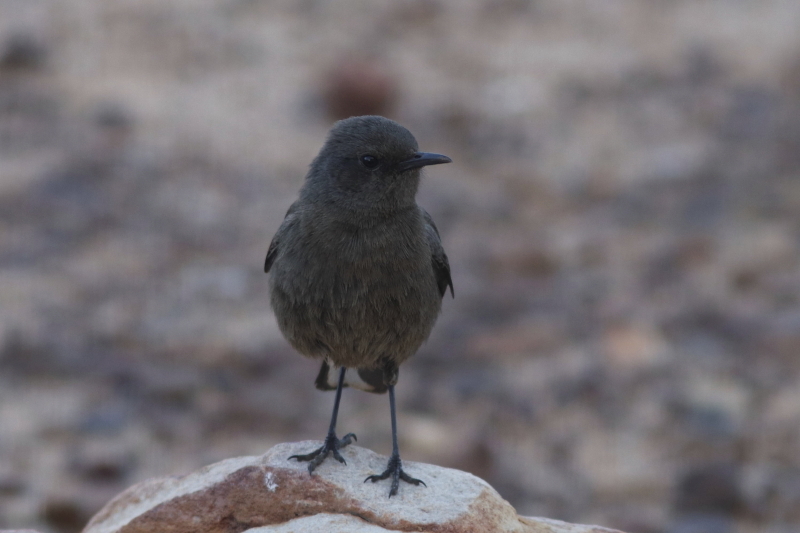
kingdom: Animalia
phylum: Chordata
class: Aves
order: Passeriformes
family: Muscicapidae
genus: Myrmecocichla
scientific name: Myrmecocichla formicivora
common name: Ant-eating chat
